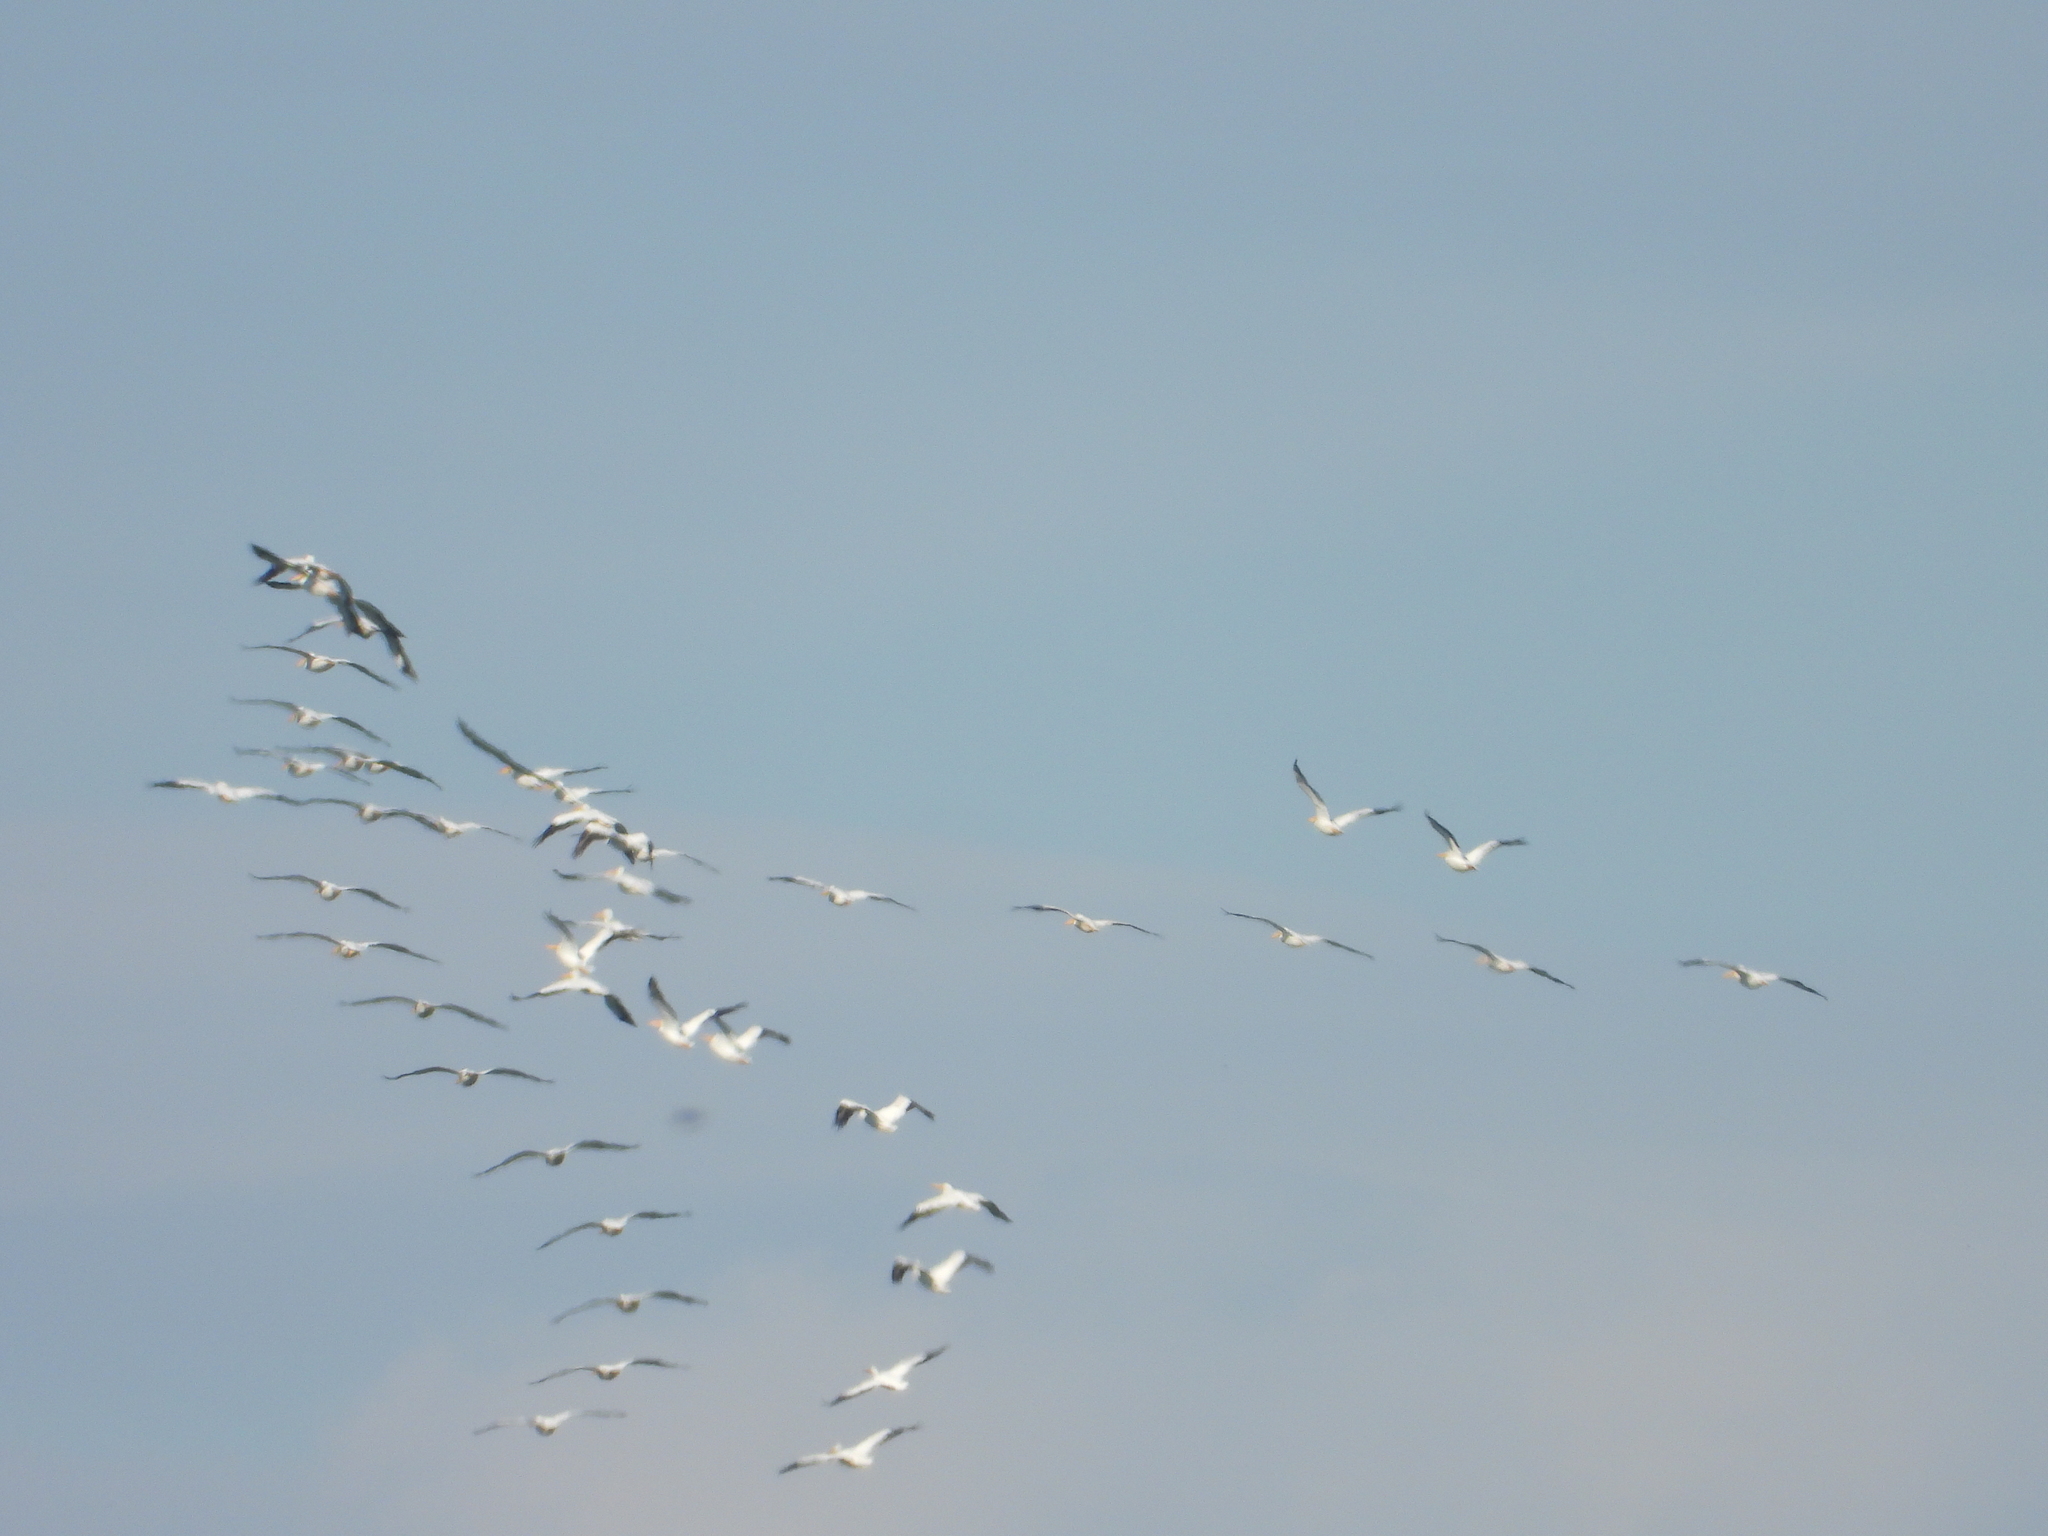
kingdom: Animalia
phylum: Chordata
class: Aves
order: Pelecaniformes
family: Pelecanidae
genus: Pelecanus
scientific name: Pelecanus erythrorhynchos
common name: American white pelican
